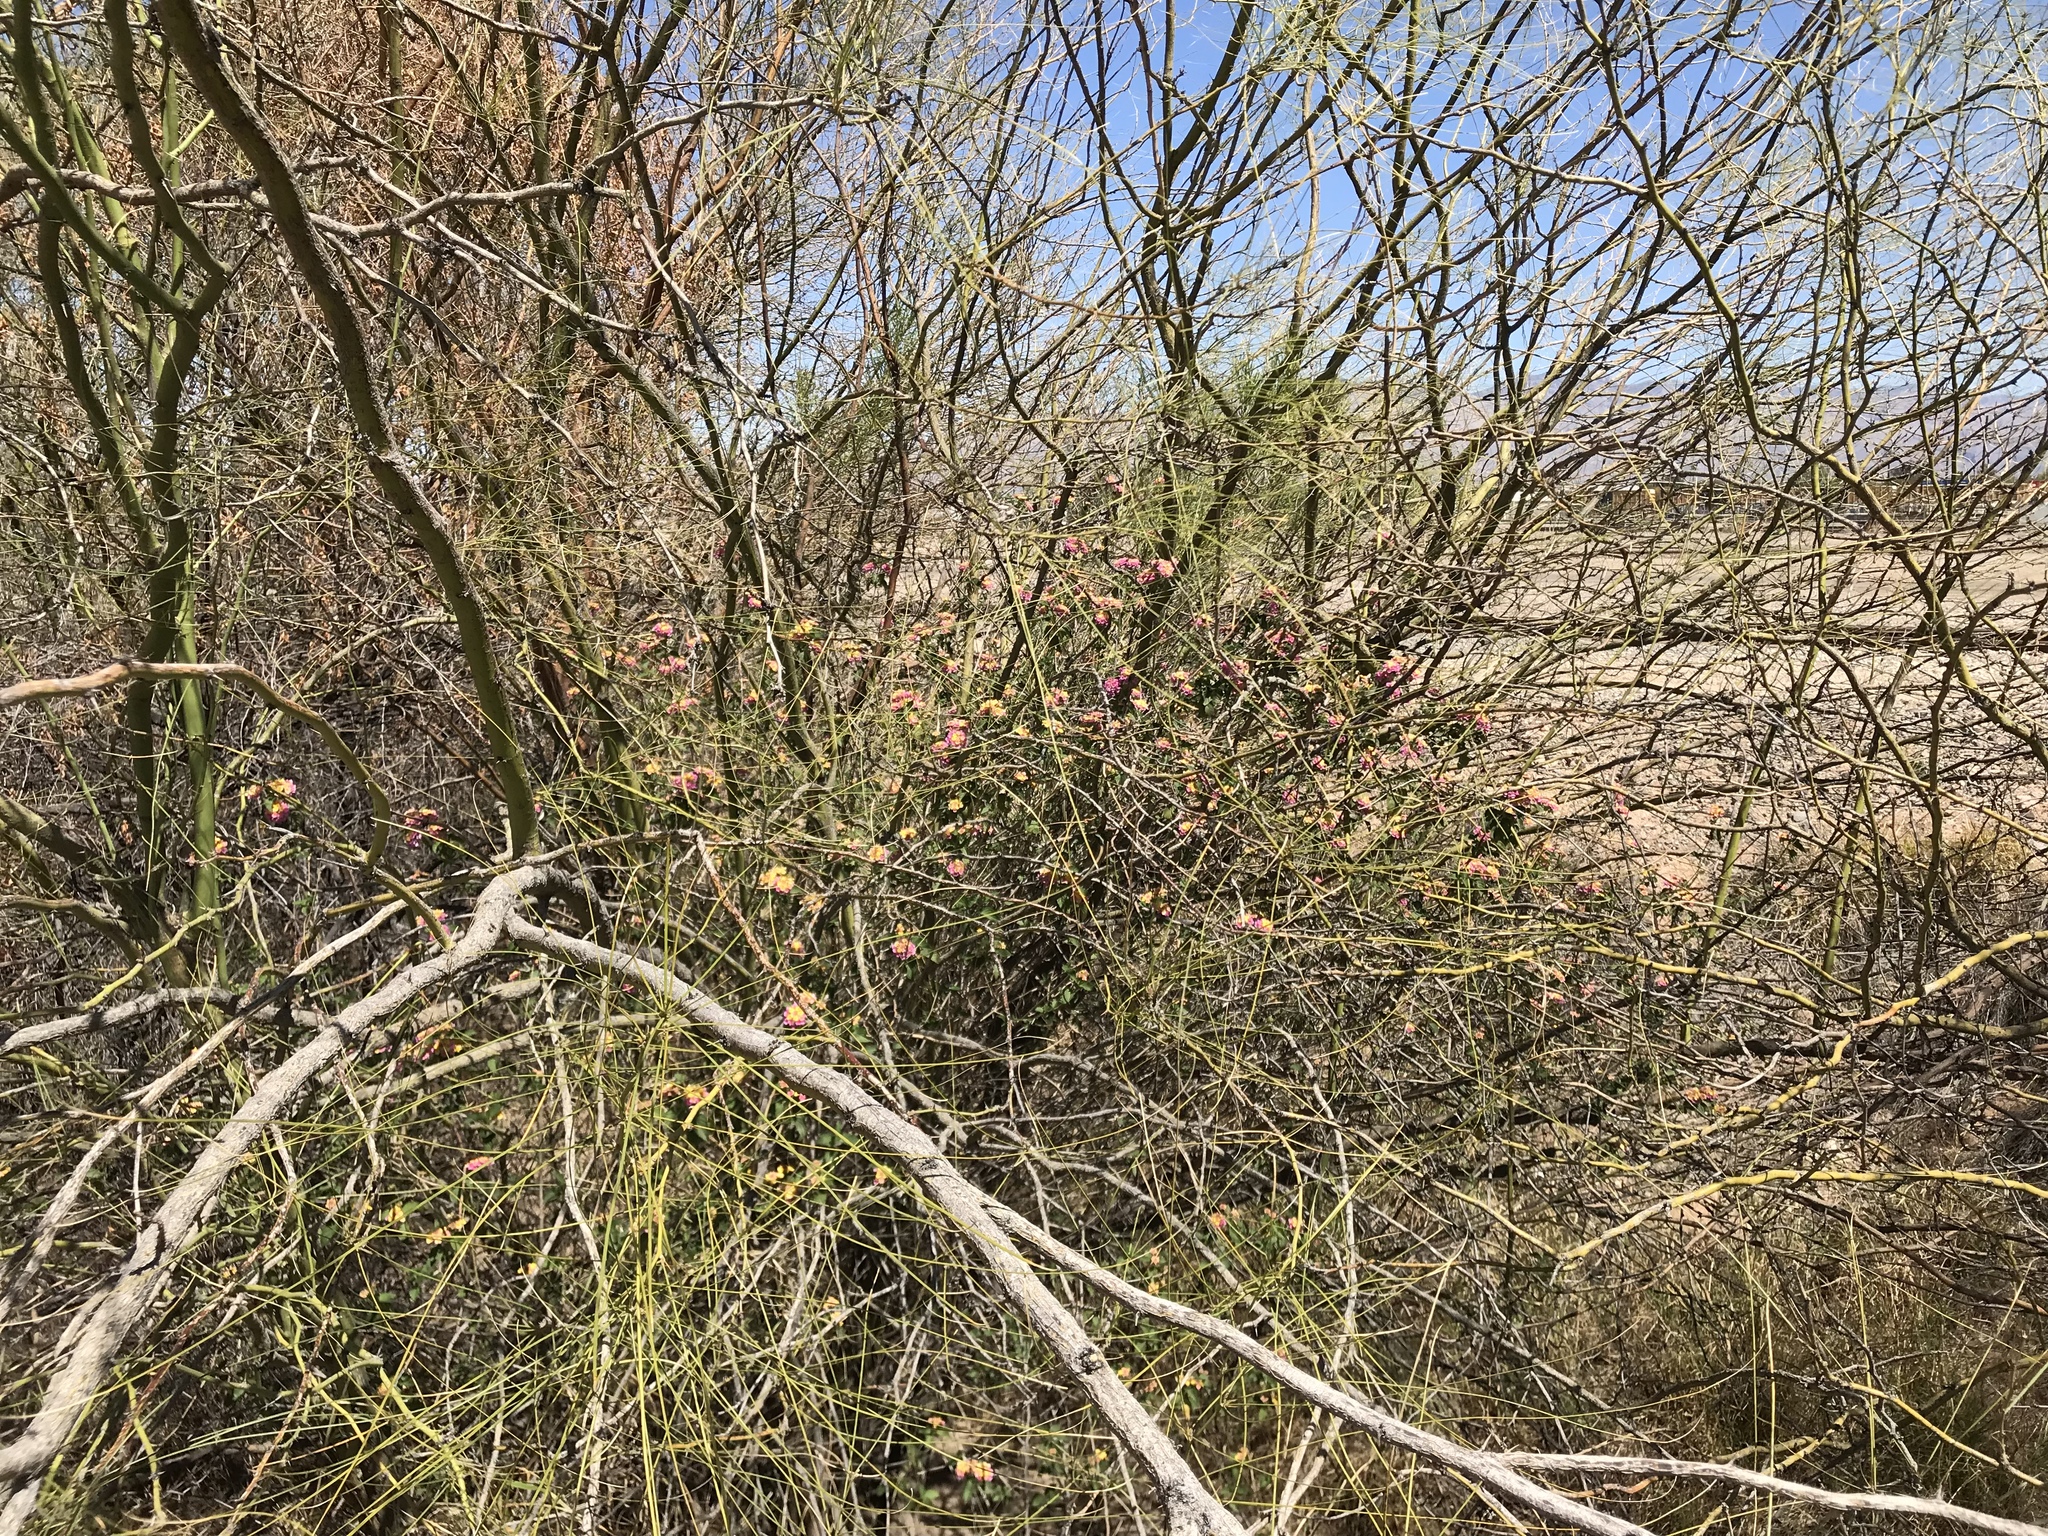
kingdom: Plantae
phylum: Tracheophyta
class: Magnoliopsida
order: Lamiales
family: Verbenaceae
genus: Lantana
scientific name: Lantana camara
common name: Lantana
